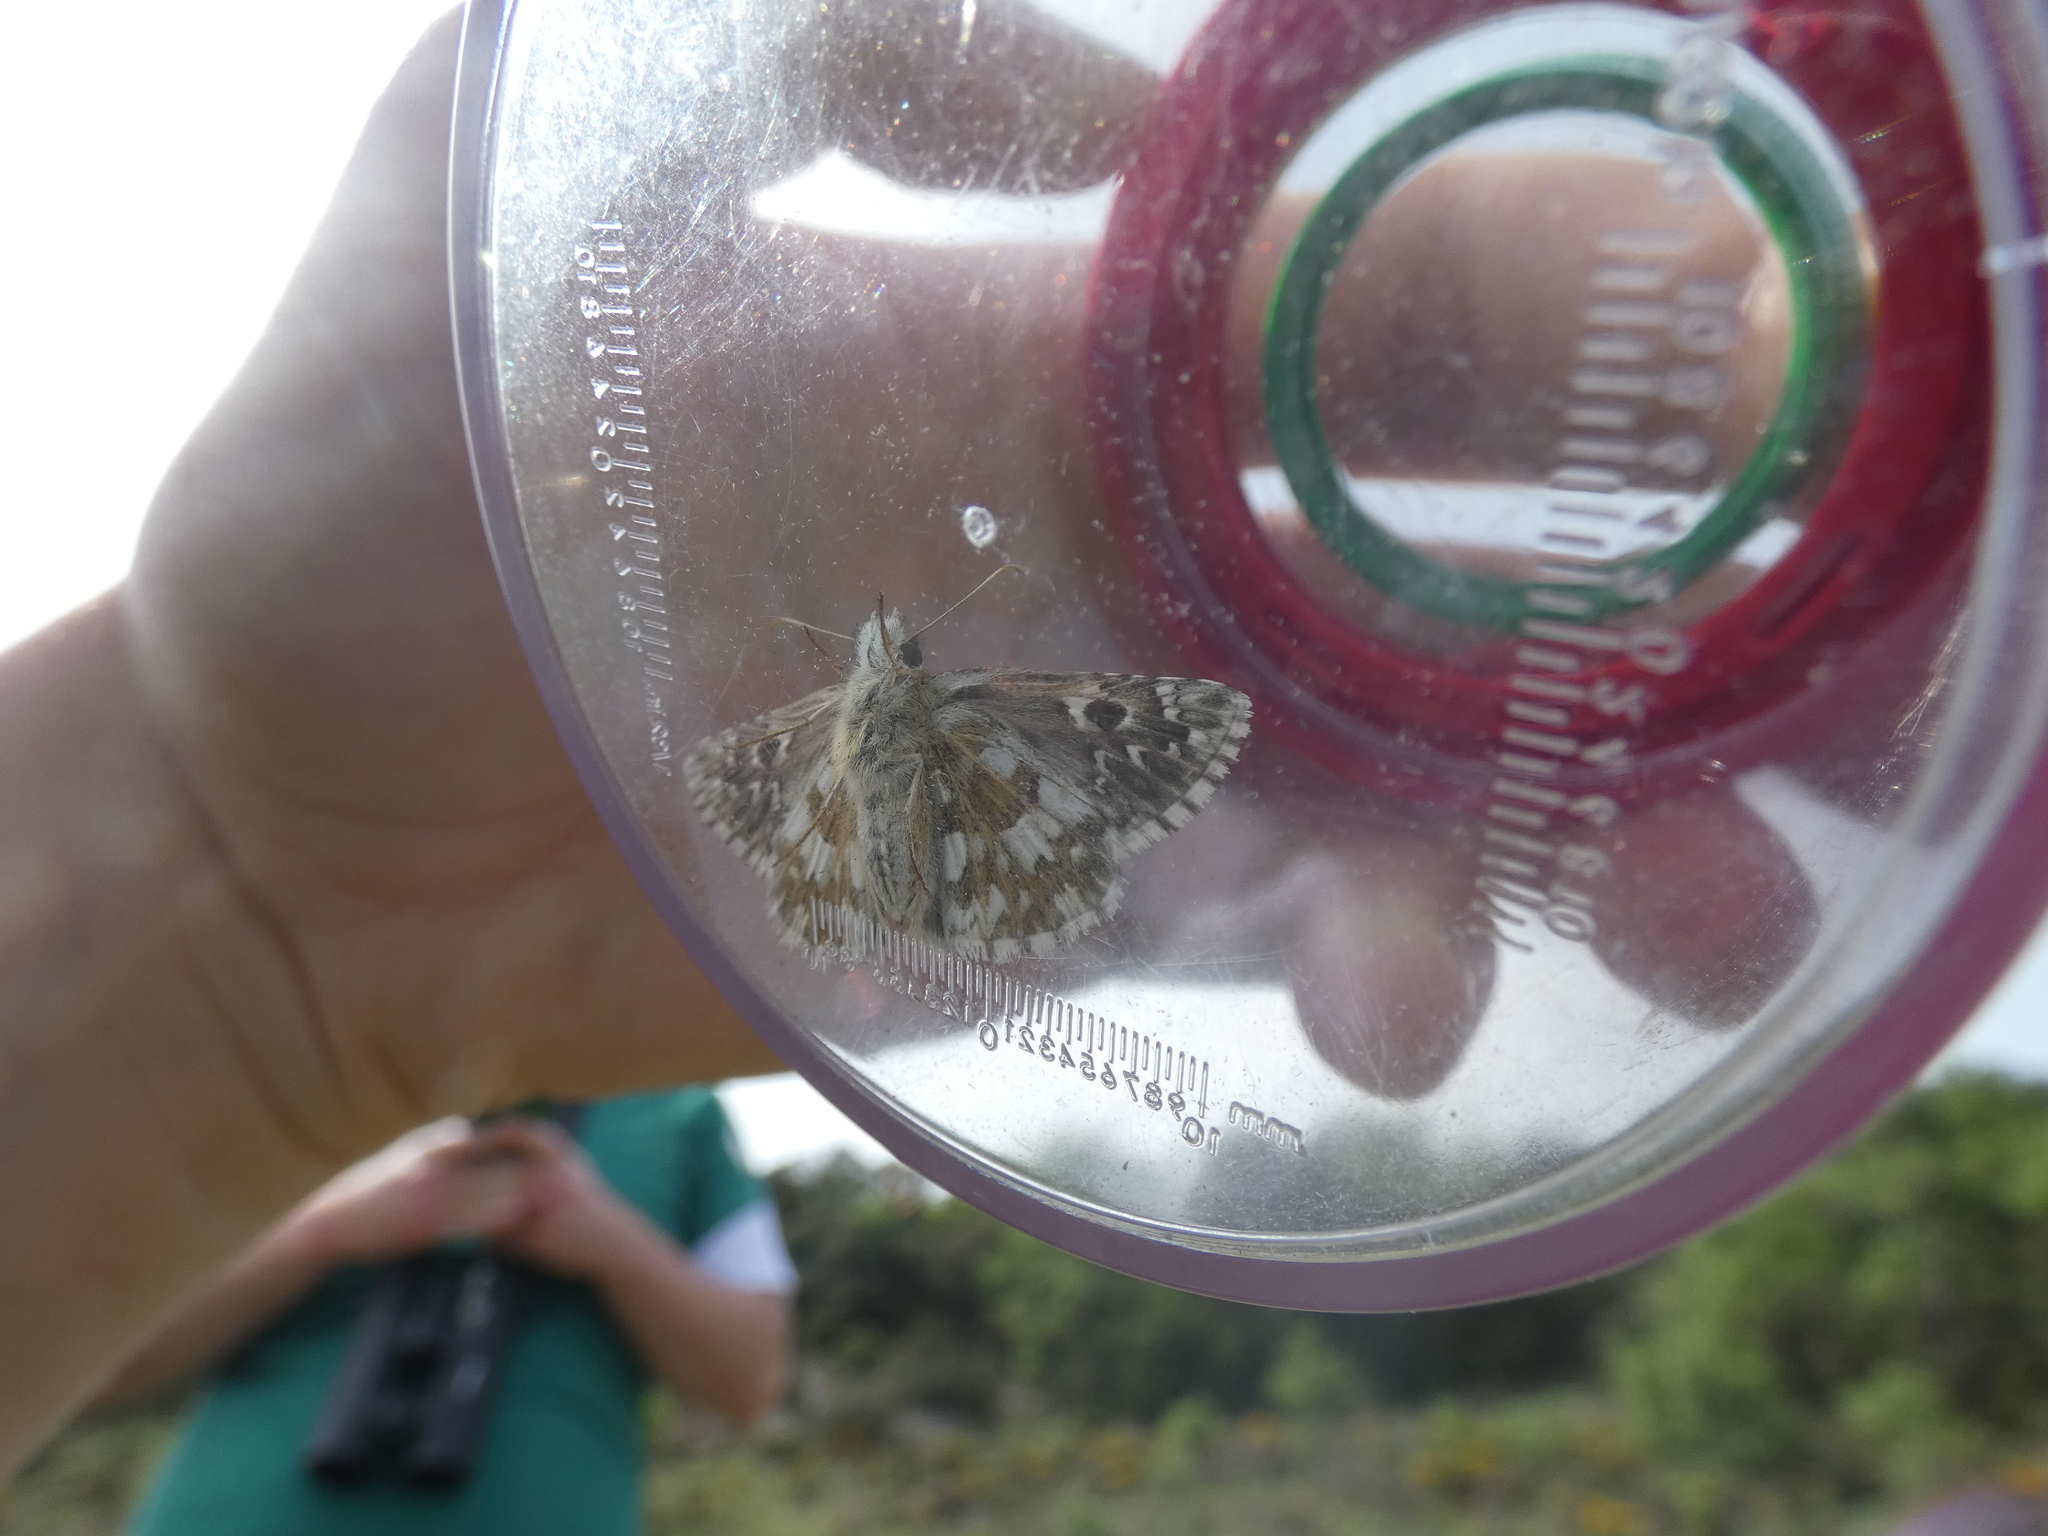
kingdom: Animalia
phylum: Arthropoda
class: Insecta
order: Lepidoptera
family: Hesperiidae
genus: Pyrgus
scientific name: Pyrgus armoricanus
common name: Oberthür's grizzled skipper
